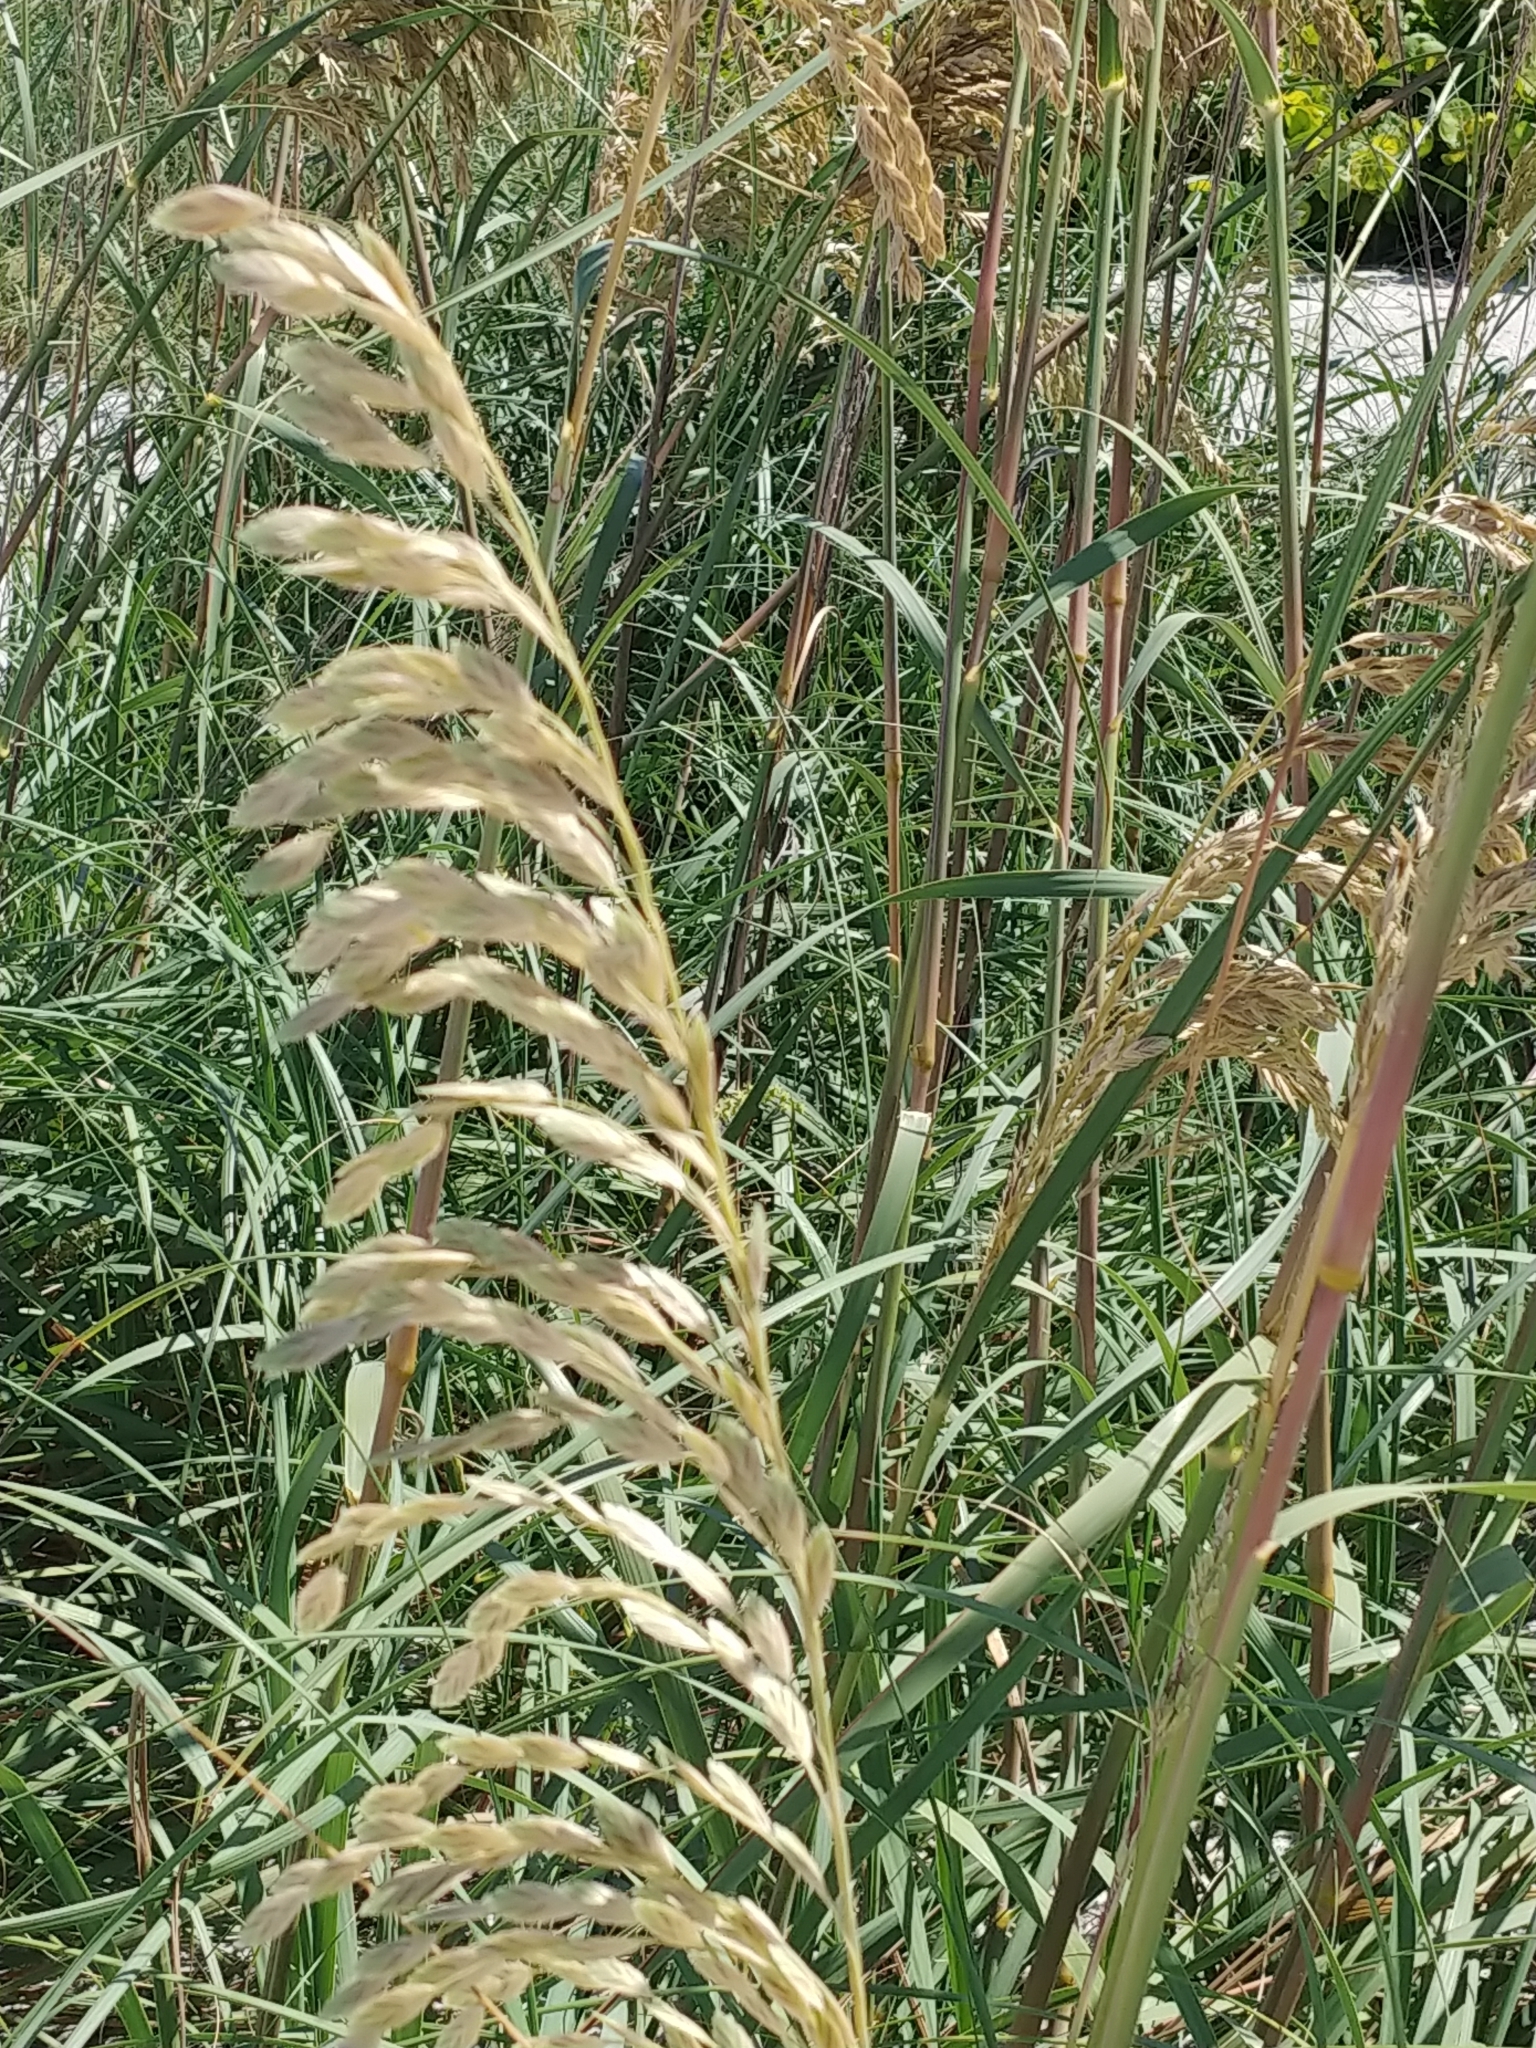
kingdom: Plantae
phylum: Tracheophyta
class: Liliopsida
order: Poales
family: Poaceae
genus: Uniola
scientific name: Uniola paniculata
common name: Seaside-oats
